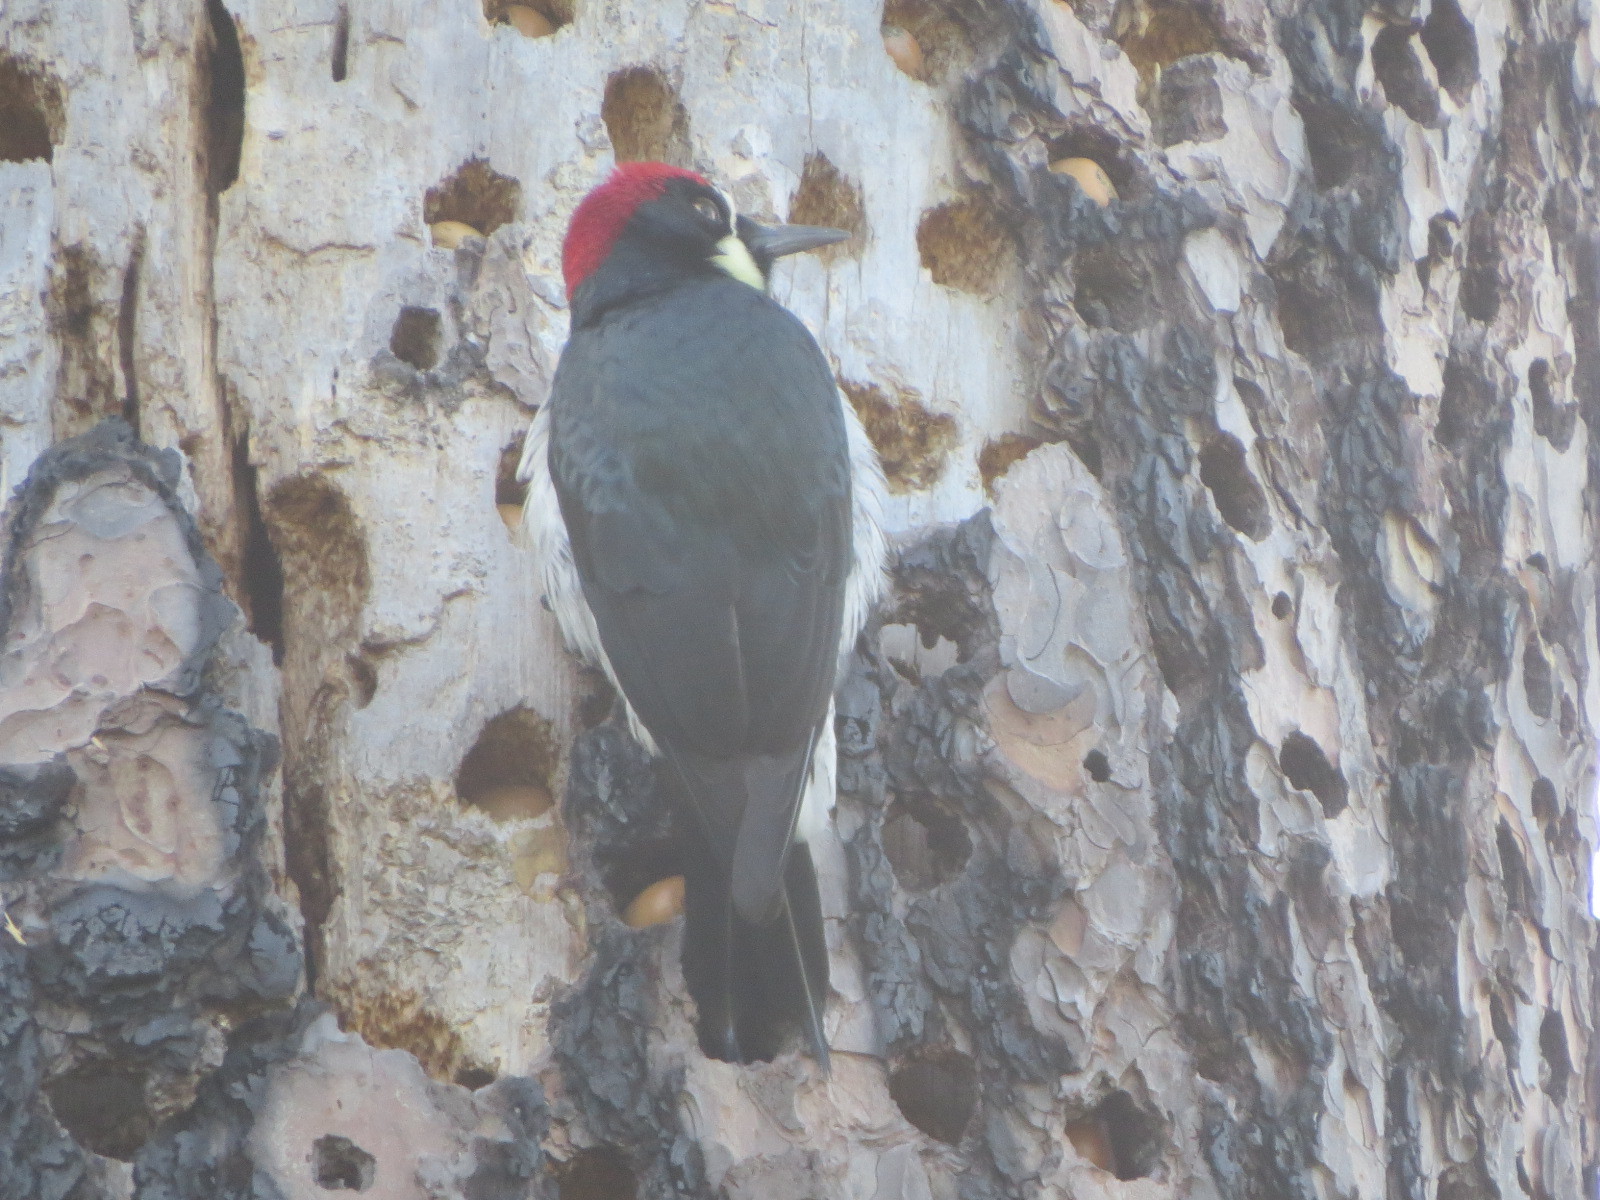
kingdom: Animalia
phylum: Chordata
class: Aves
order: Piciformes
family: Picidae
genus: Melanerpes
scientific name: Melanerpes formicivorus
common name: Acorn woodpecker
